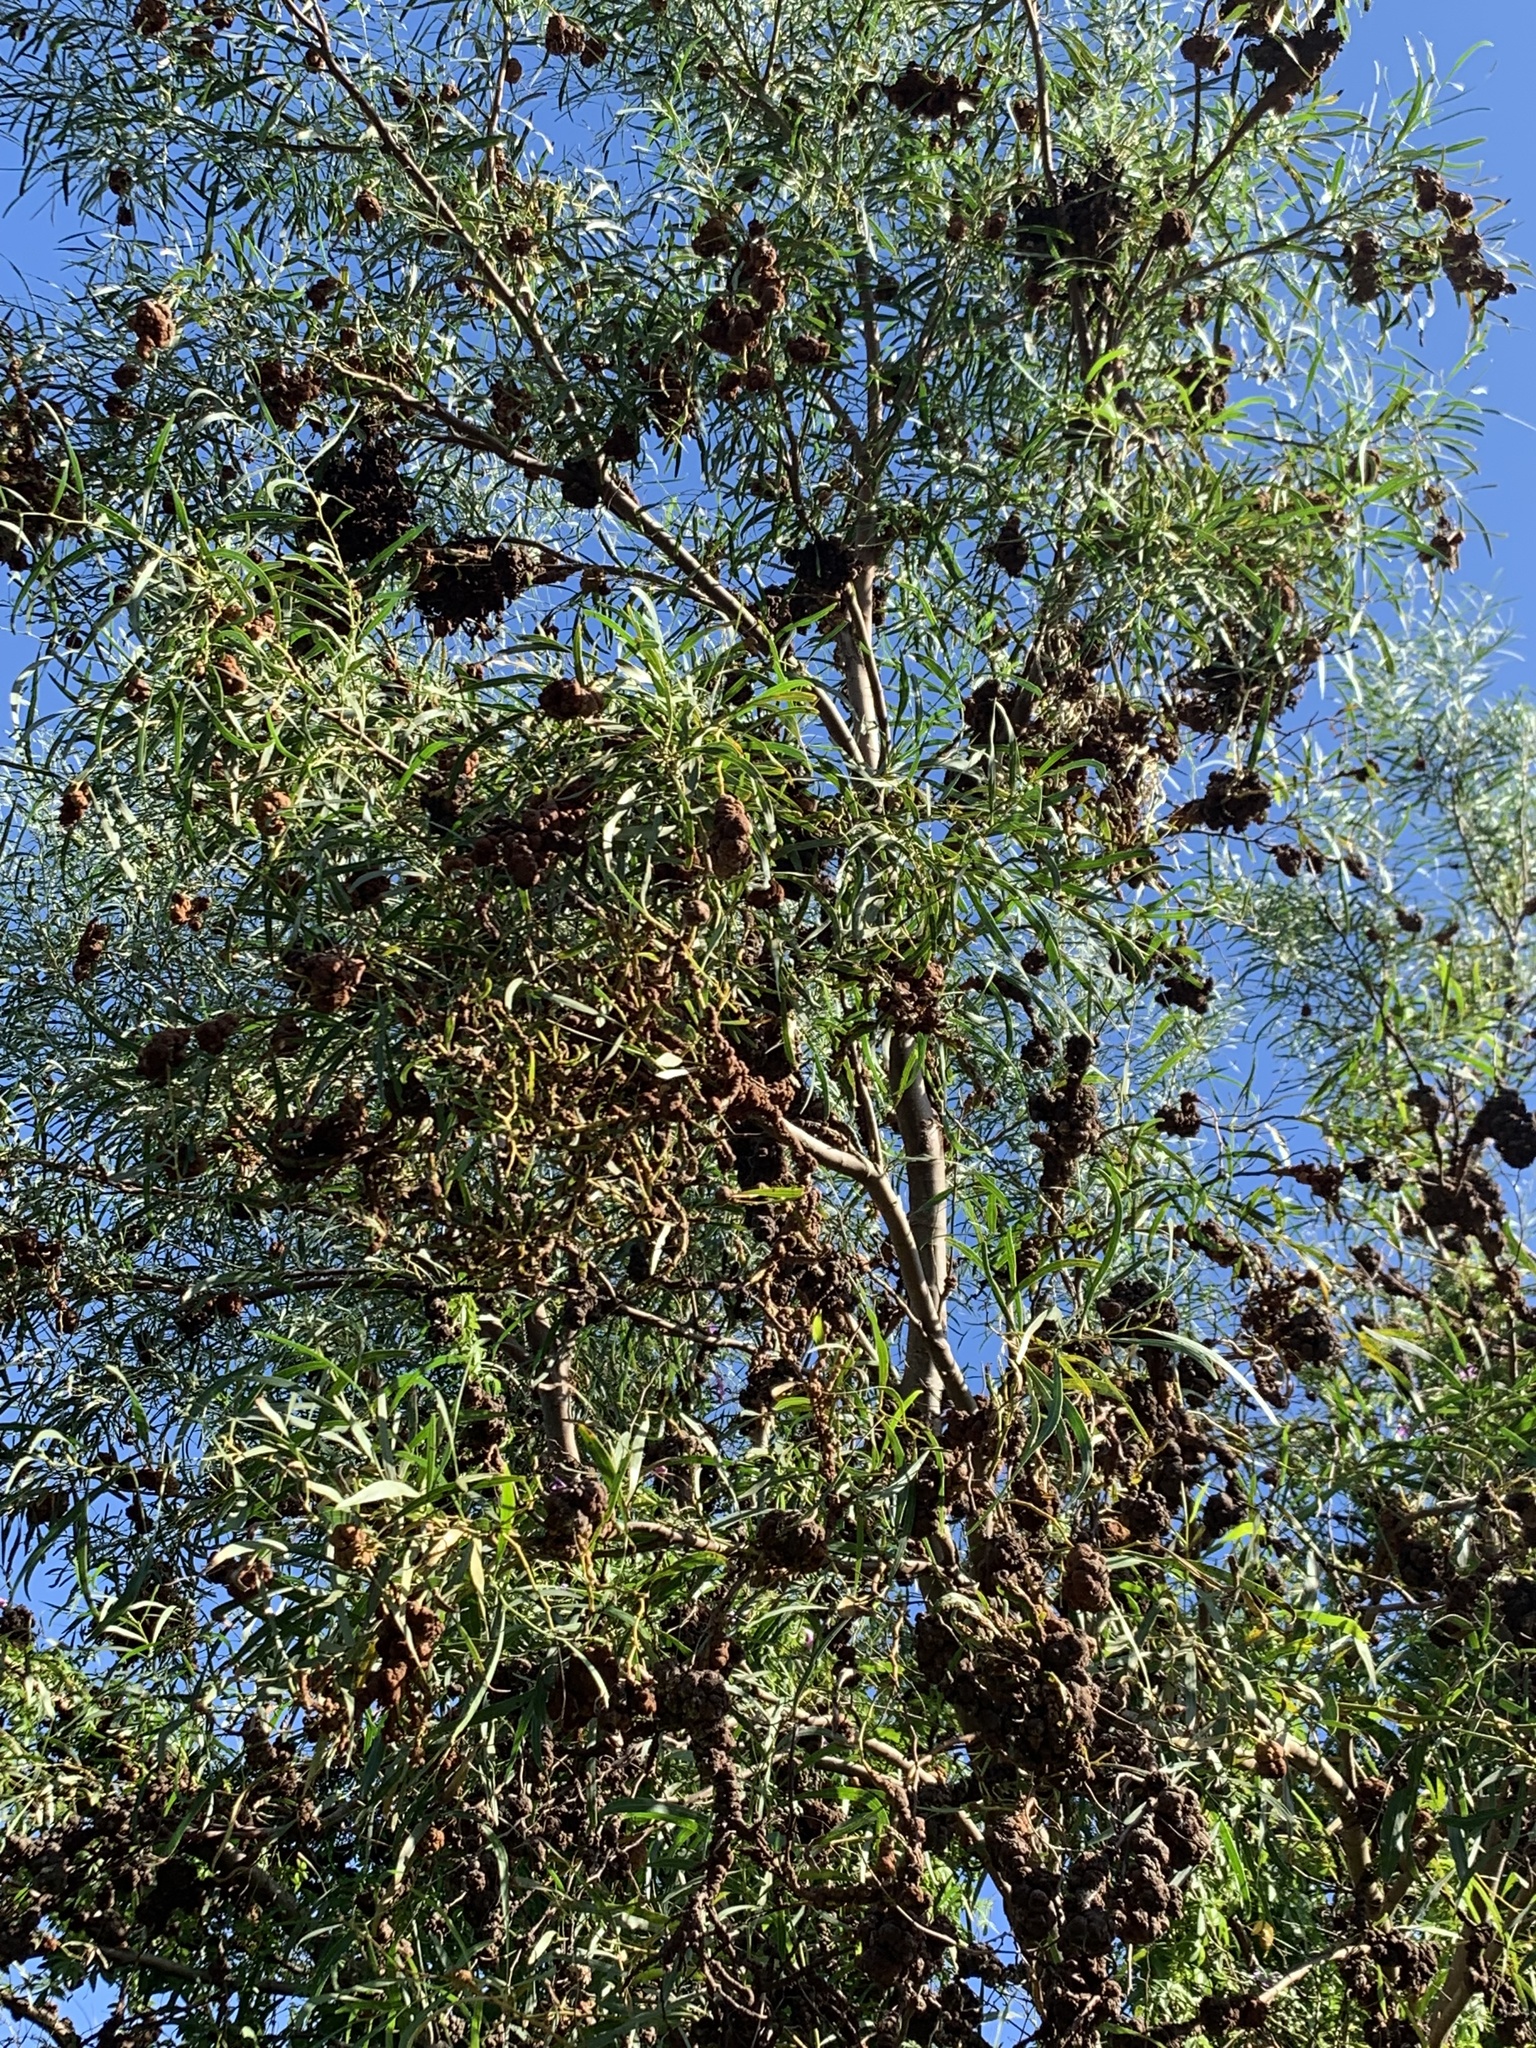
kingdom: Fungi
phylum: Basidiomycota
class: Pucciniomycetes
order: Pucciniales
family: Uromycladiaceae
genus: Uromycladium
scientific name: Uromycladium morrisii
